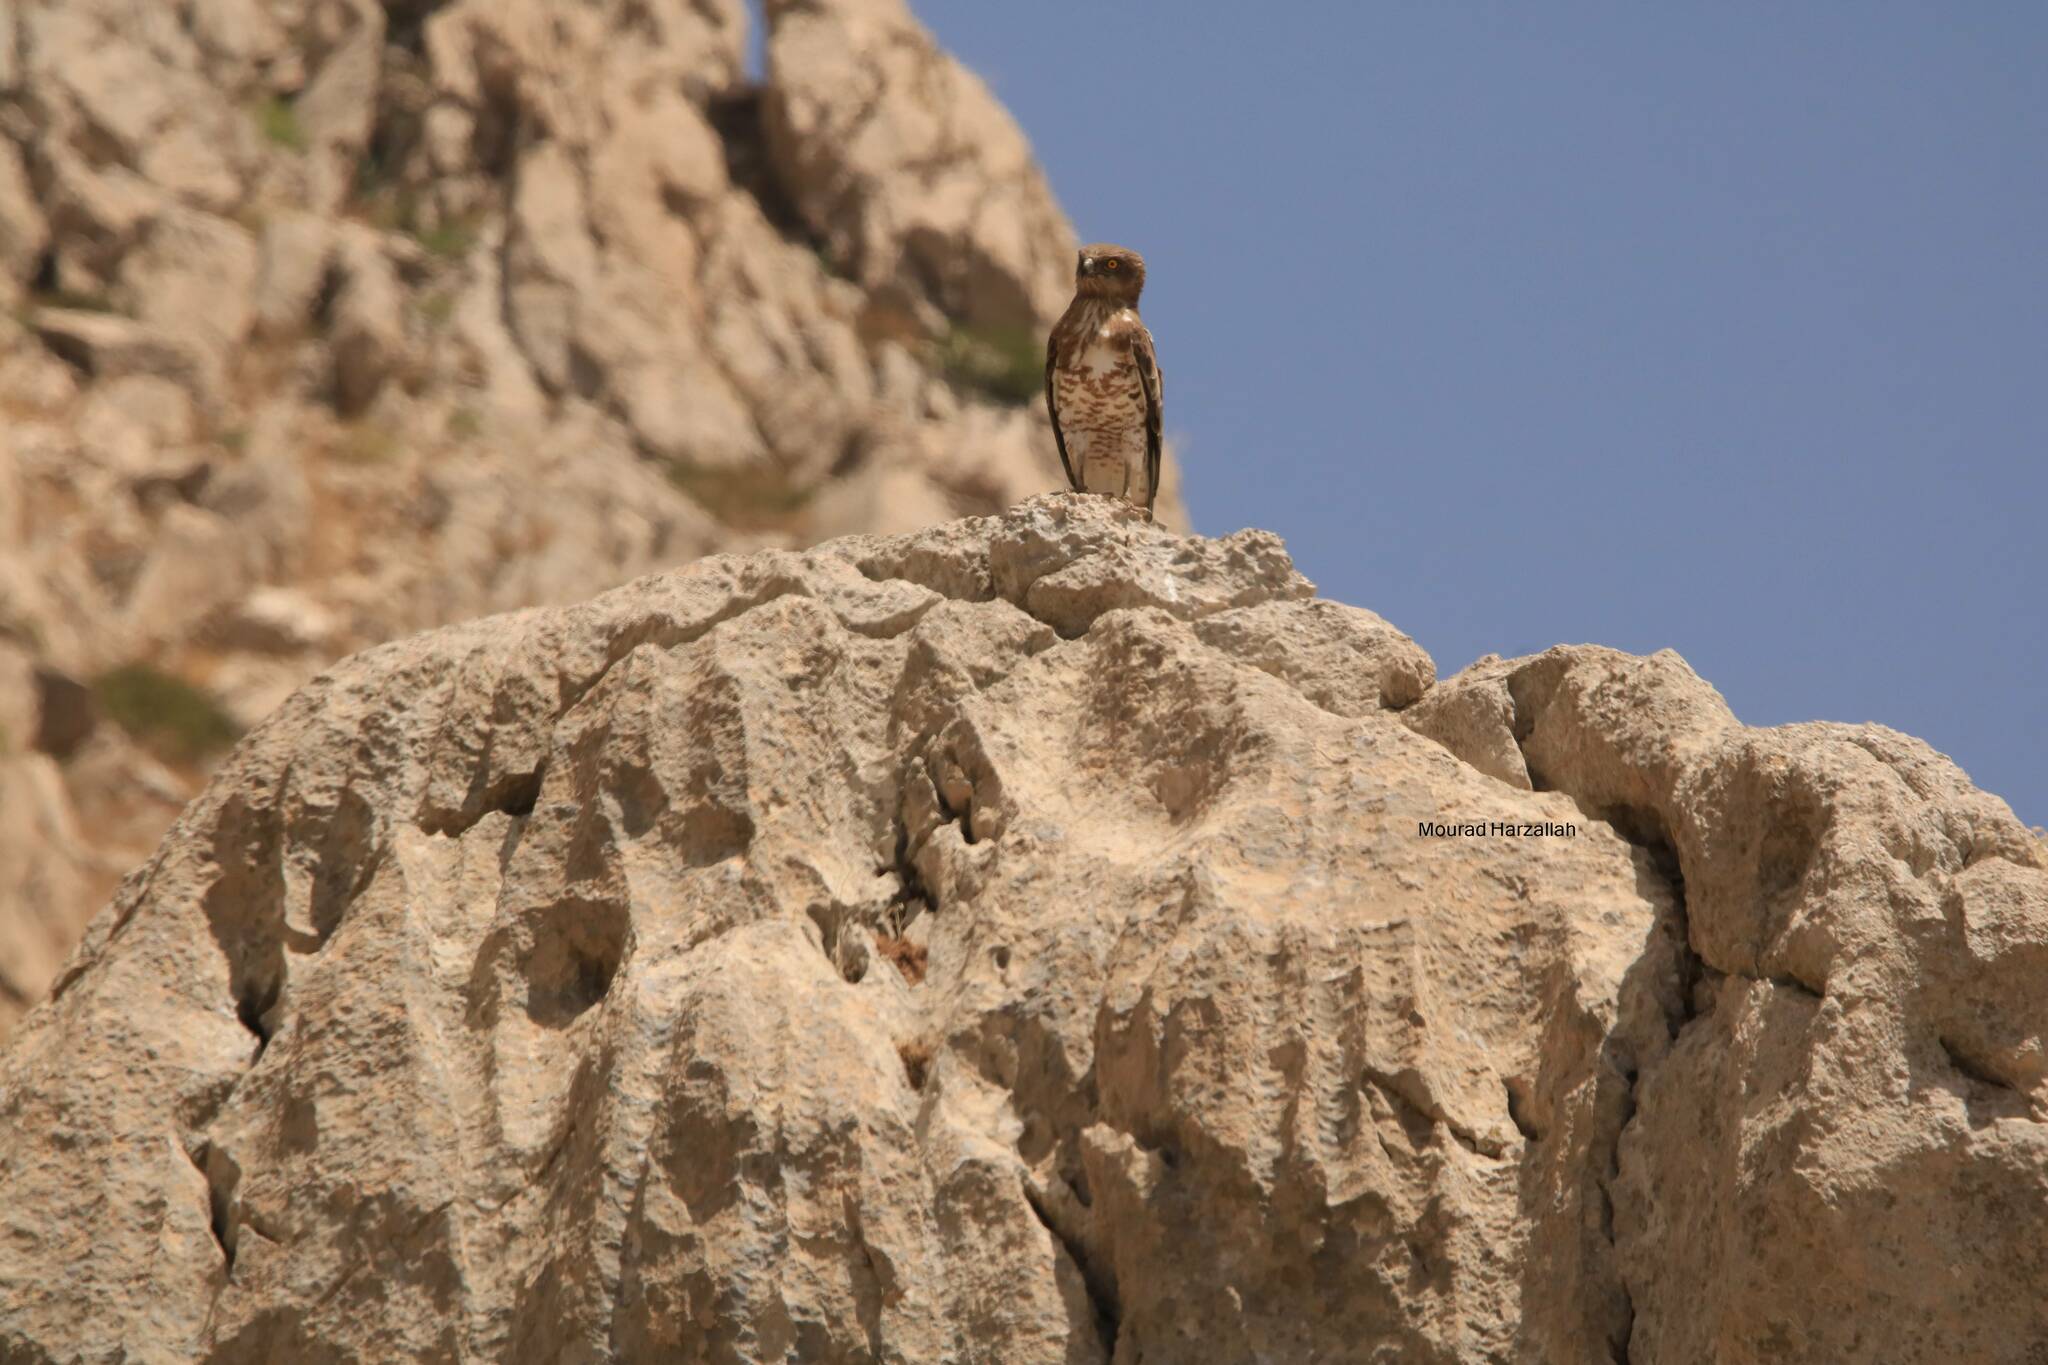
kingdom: Animalia
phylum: Chordata
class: Aves
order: Accipitriformes
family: Accipitridae
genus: Circaetus
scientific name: Circaetus gallicus
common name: Short-toed snake eagle
